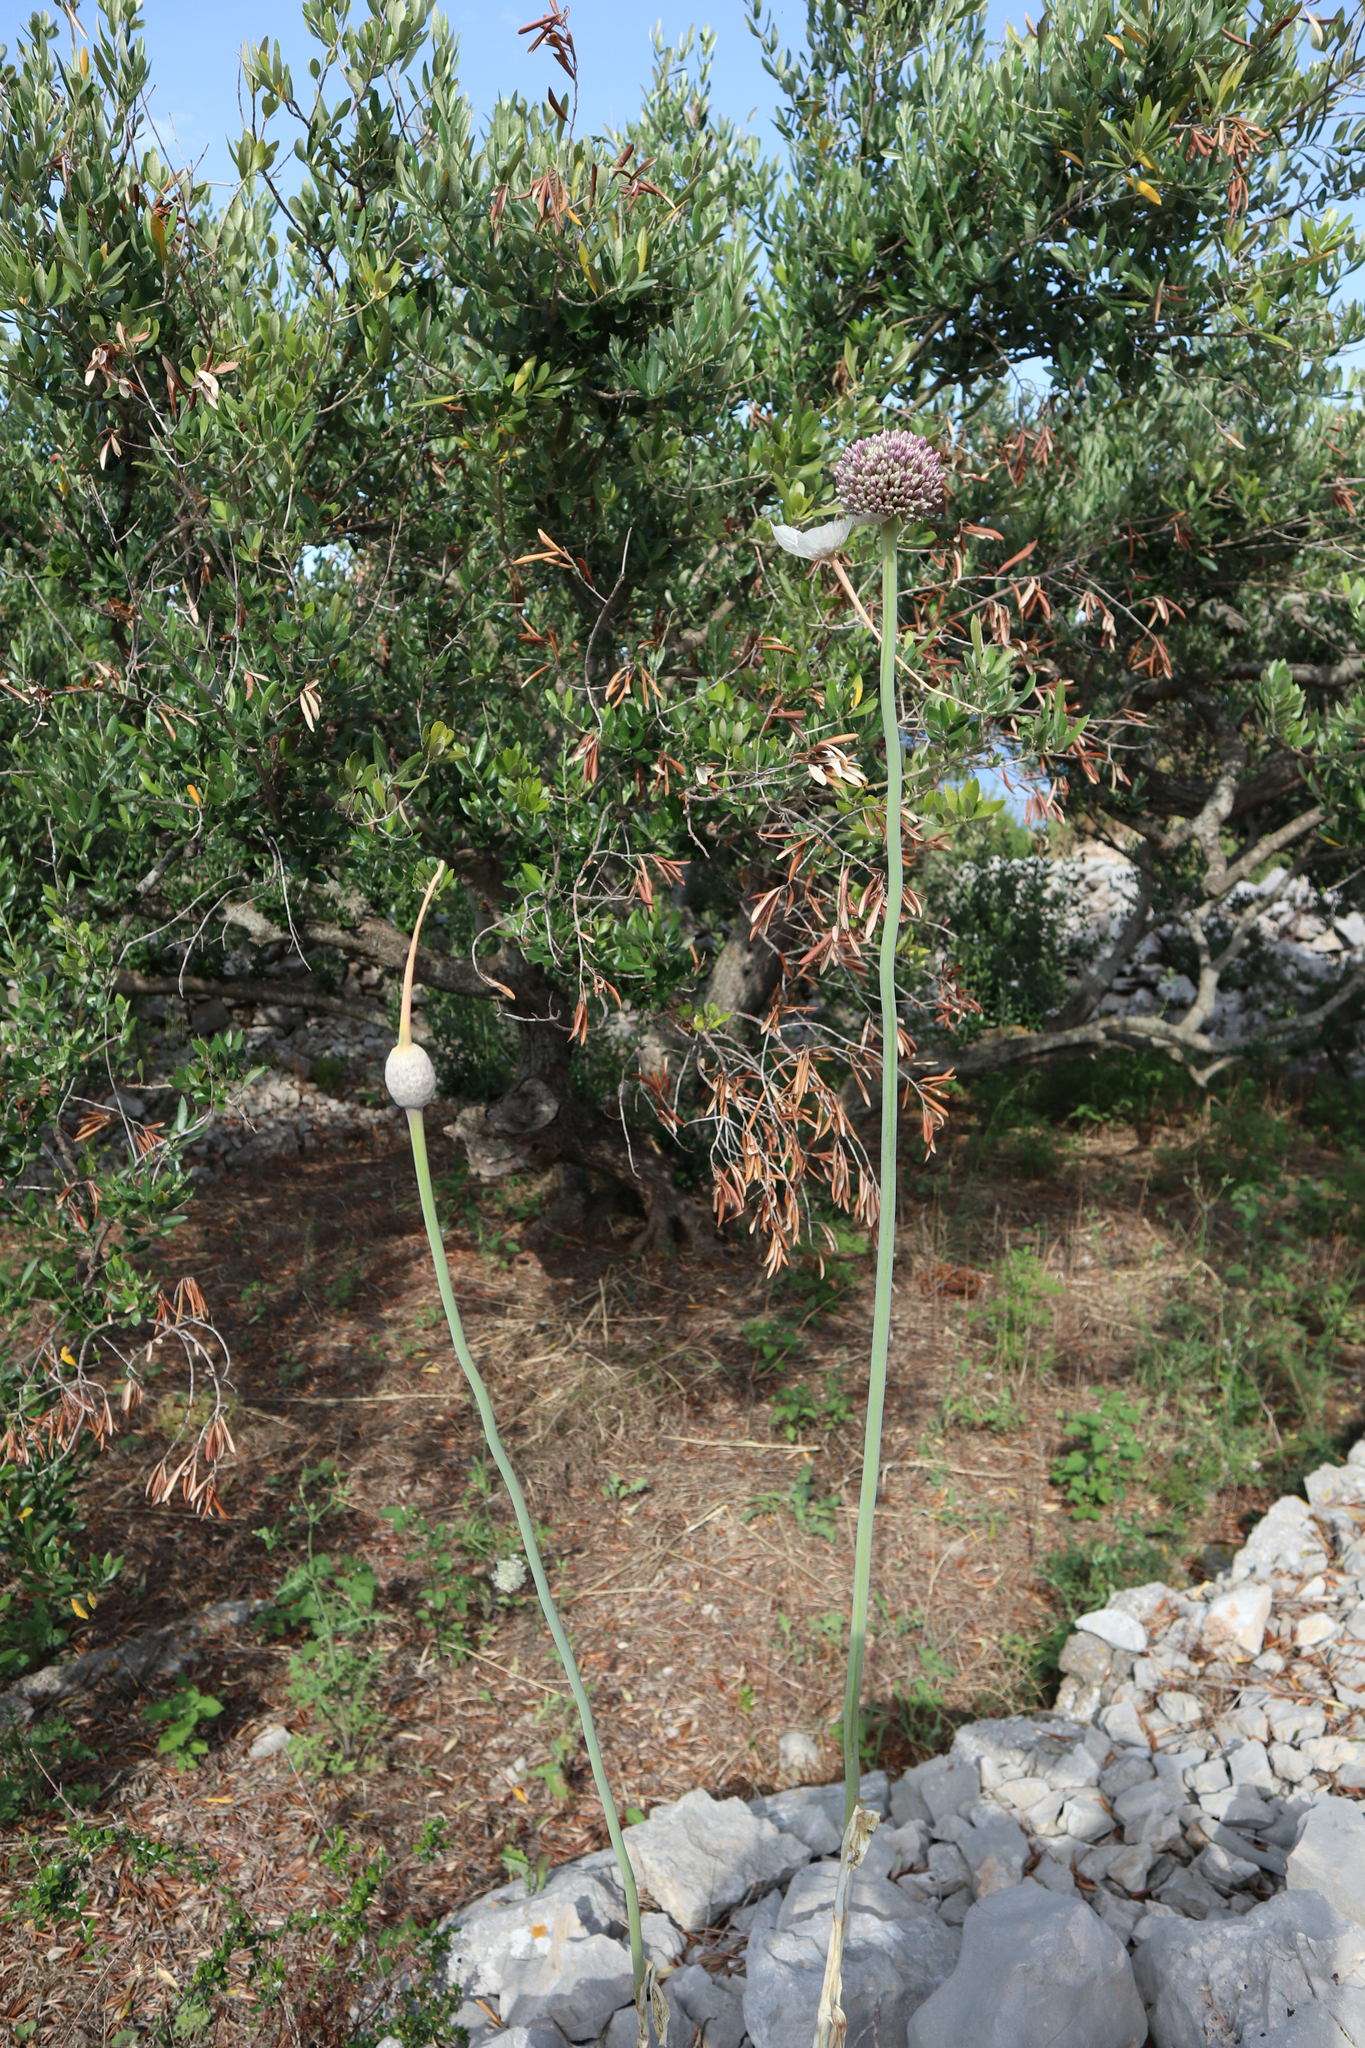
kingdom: Plantae
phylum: Tracheophyta
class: Liliopsida
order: Asparagales
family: Amaryllidaceae
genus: Allium
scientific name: Allium commutatum
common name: Sea garlic
